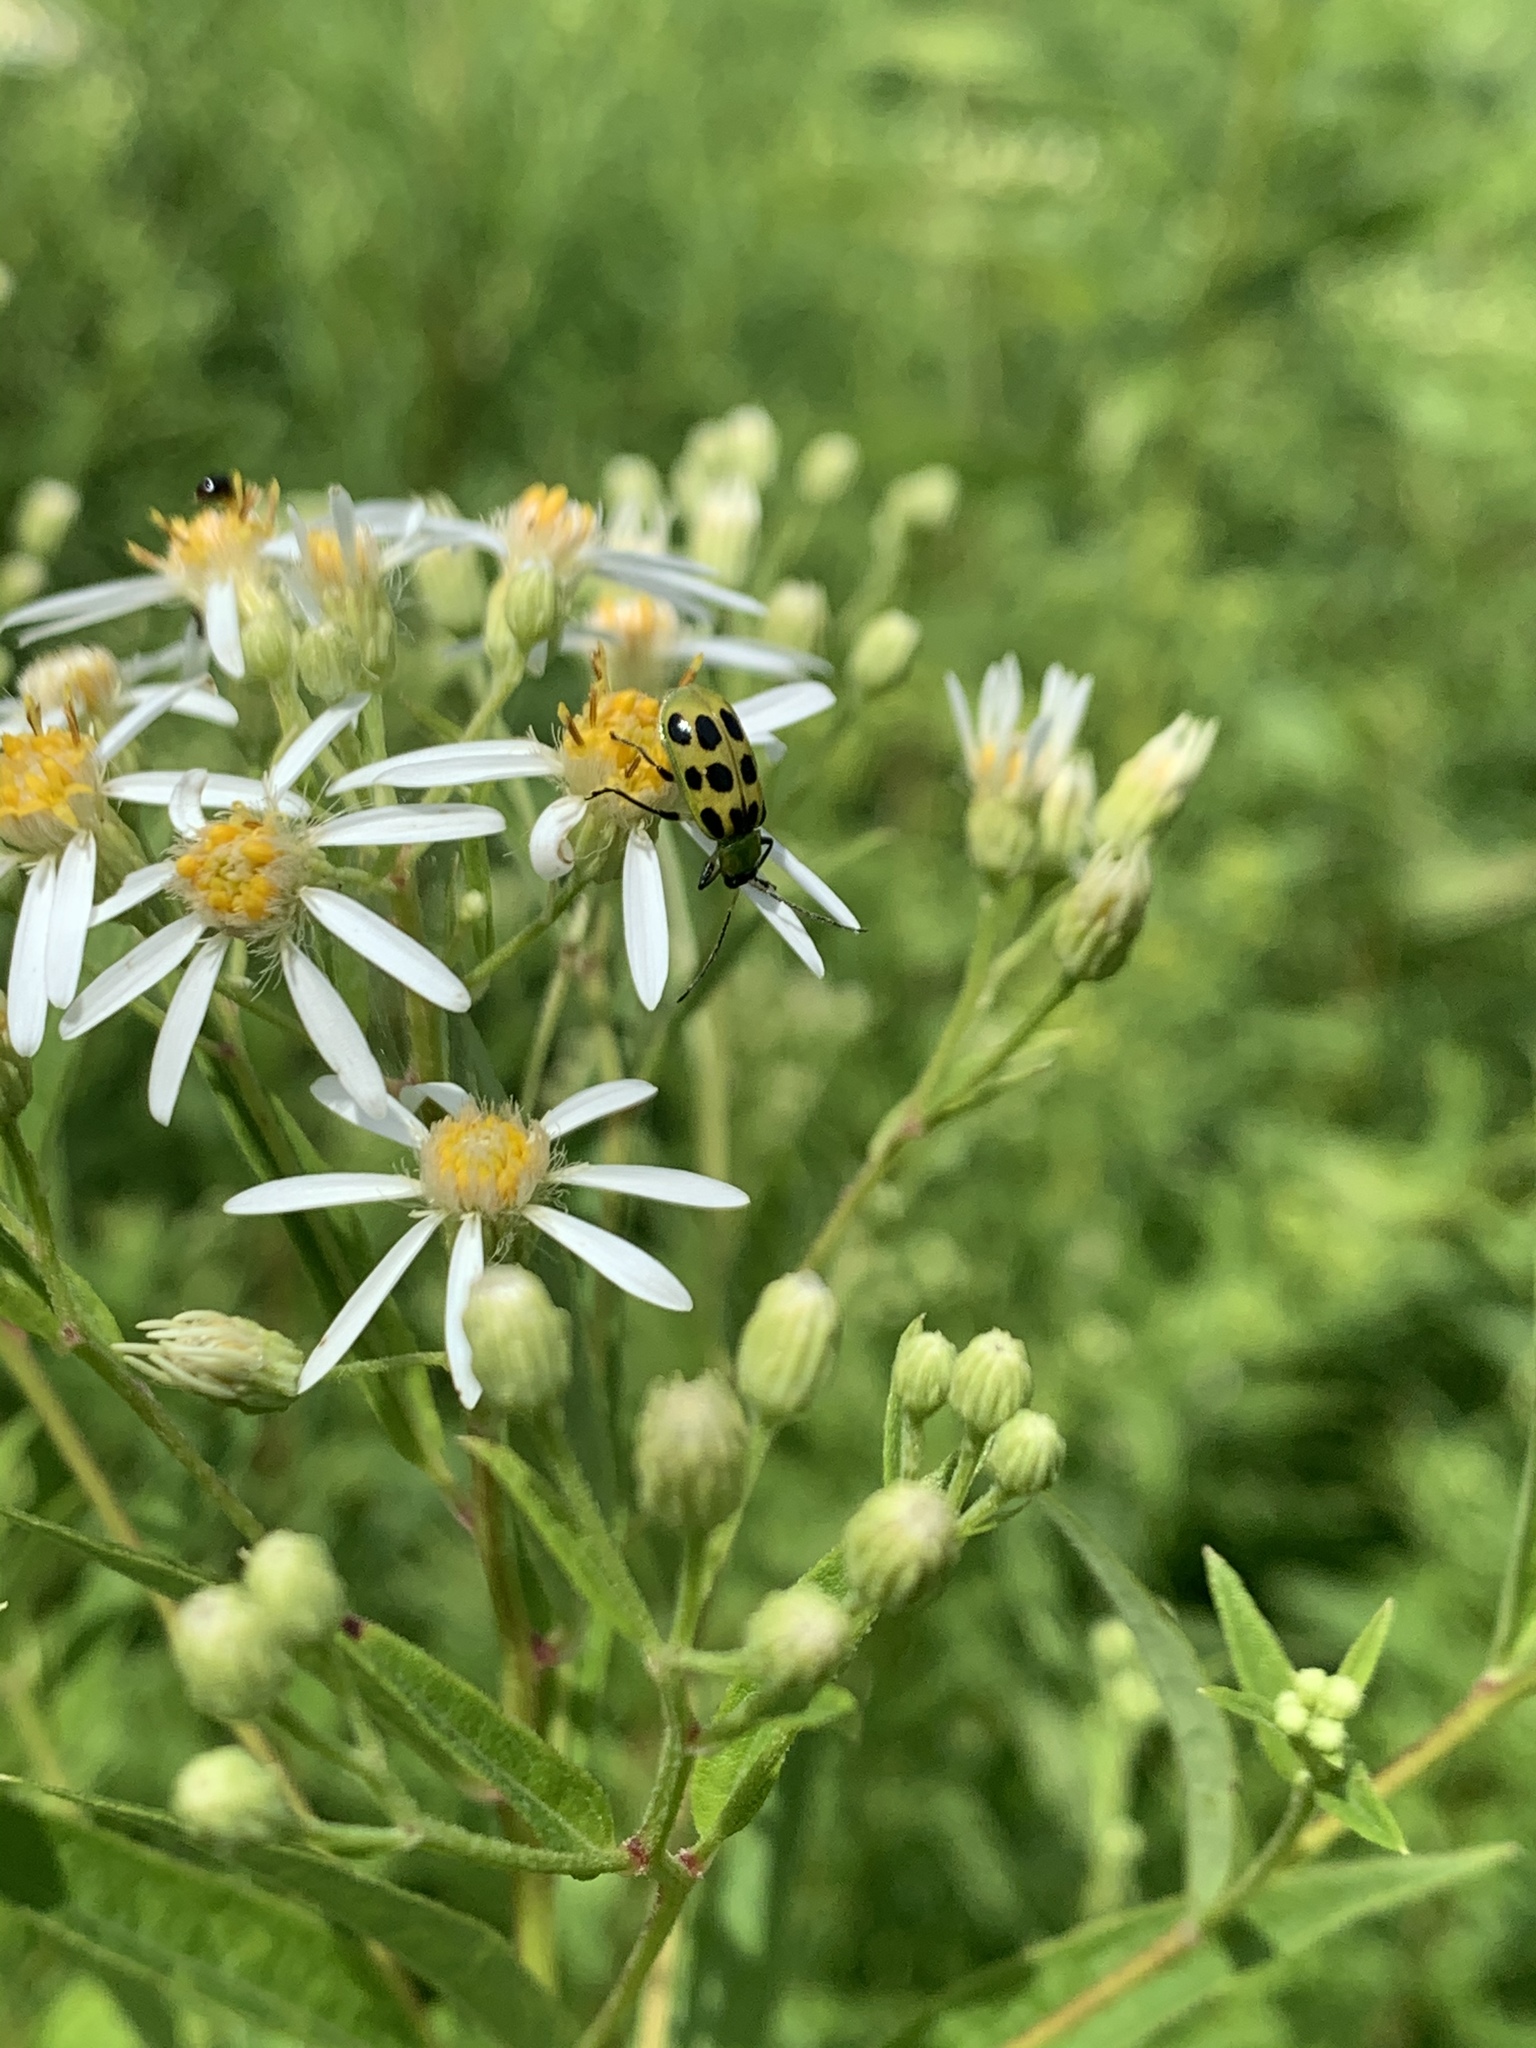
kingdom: Animalia
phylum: Arthropoda
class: Insecta
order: Coleoptera
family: Chrysomelidae
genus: Diabrotica
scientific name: Diabrotica undecimpunctata
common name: Spotted cucumber beetle
